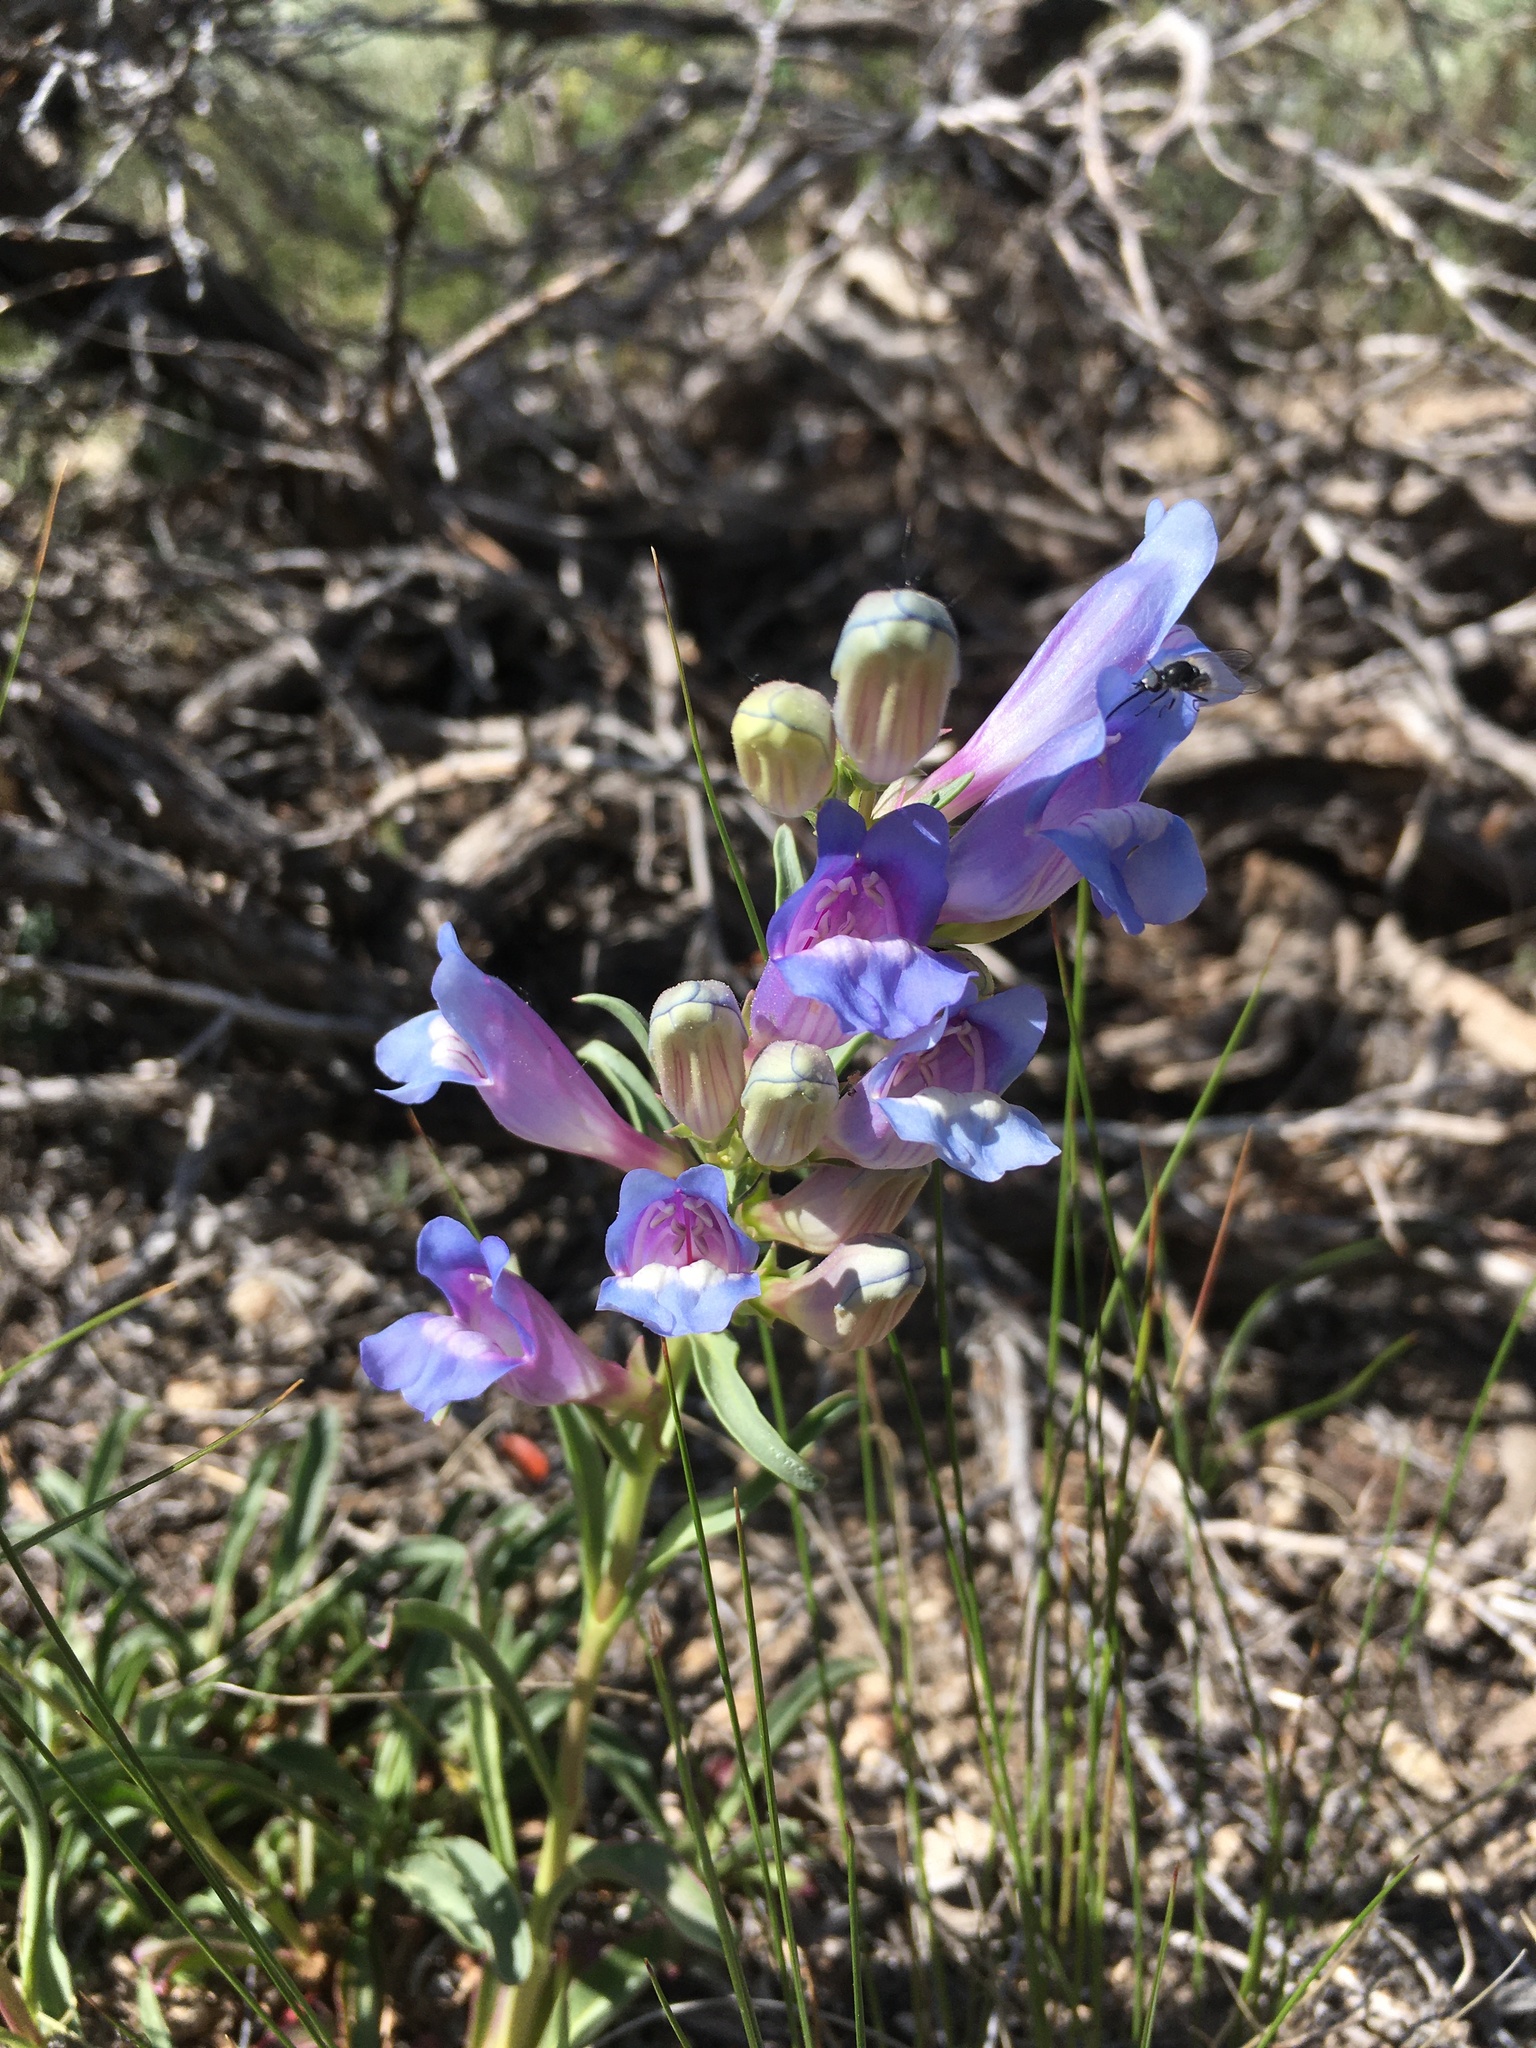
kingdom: Plantae
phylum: Tracheophyta
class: Magnoliopsida
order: Lamiales
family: Plantaginaceae
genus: Penstemon
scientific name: Penstemon speciosus
